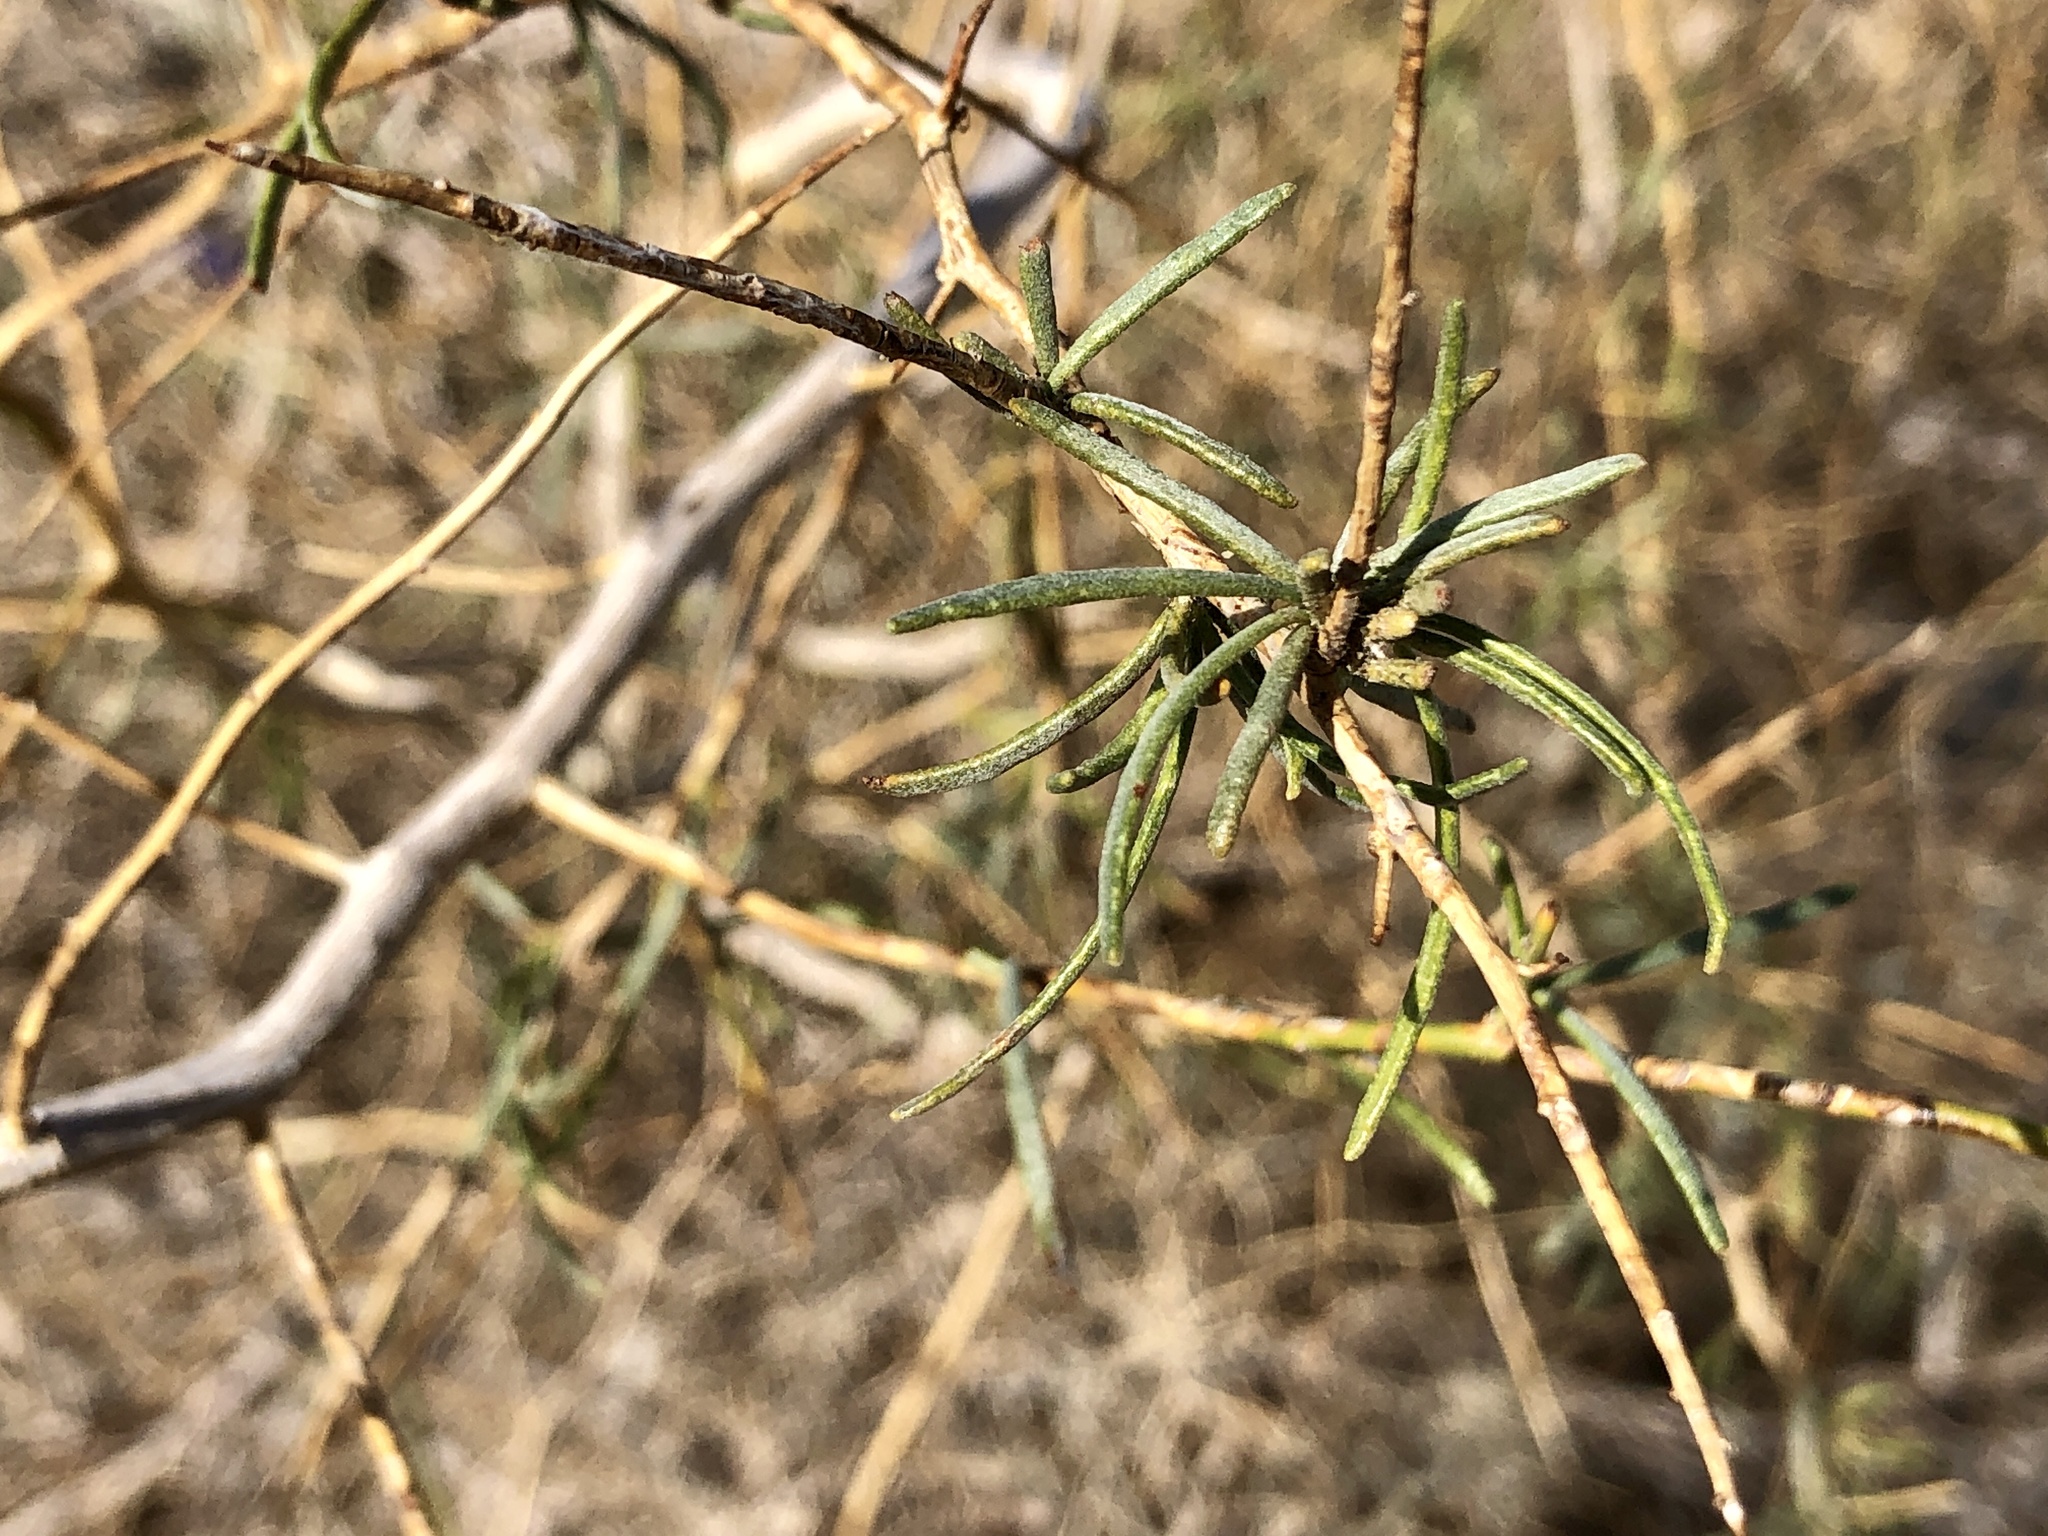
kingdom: Plantae
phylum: Tracheophyta
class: Magnoliopsida
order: Fabales
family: Fabaceae
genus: Psorothamnus
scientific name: Psorothamnus schottii
